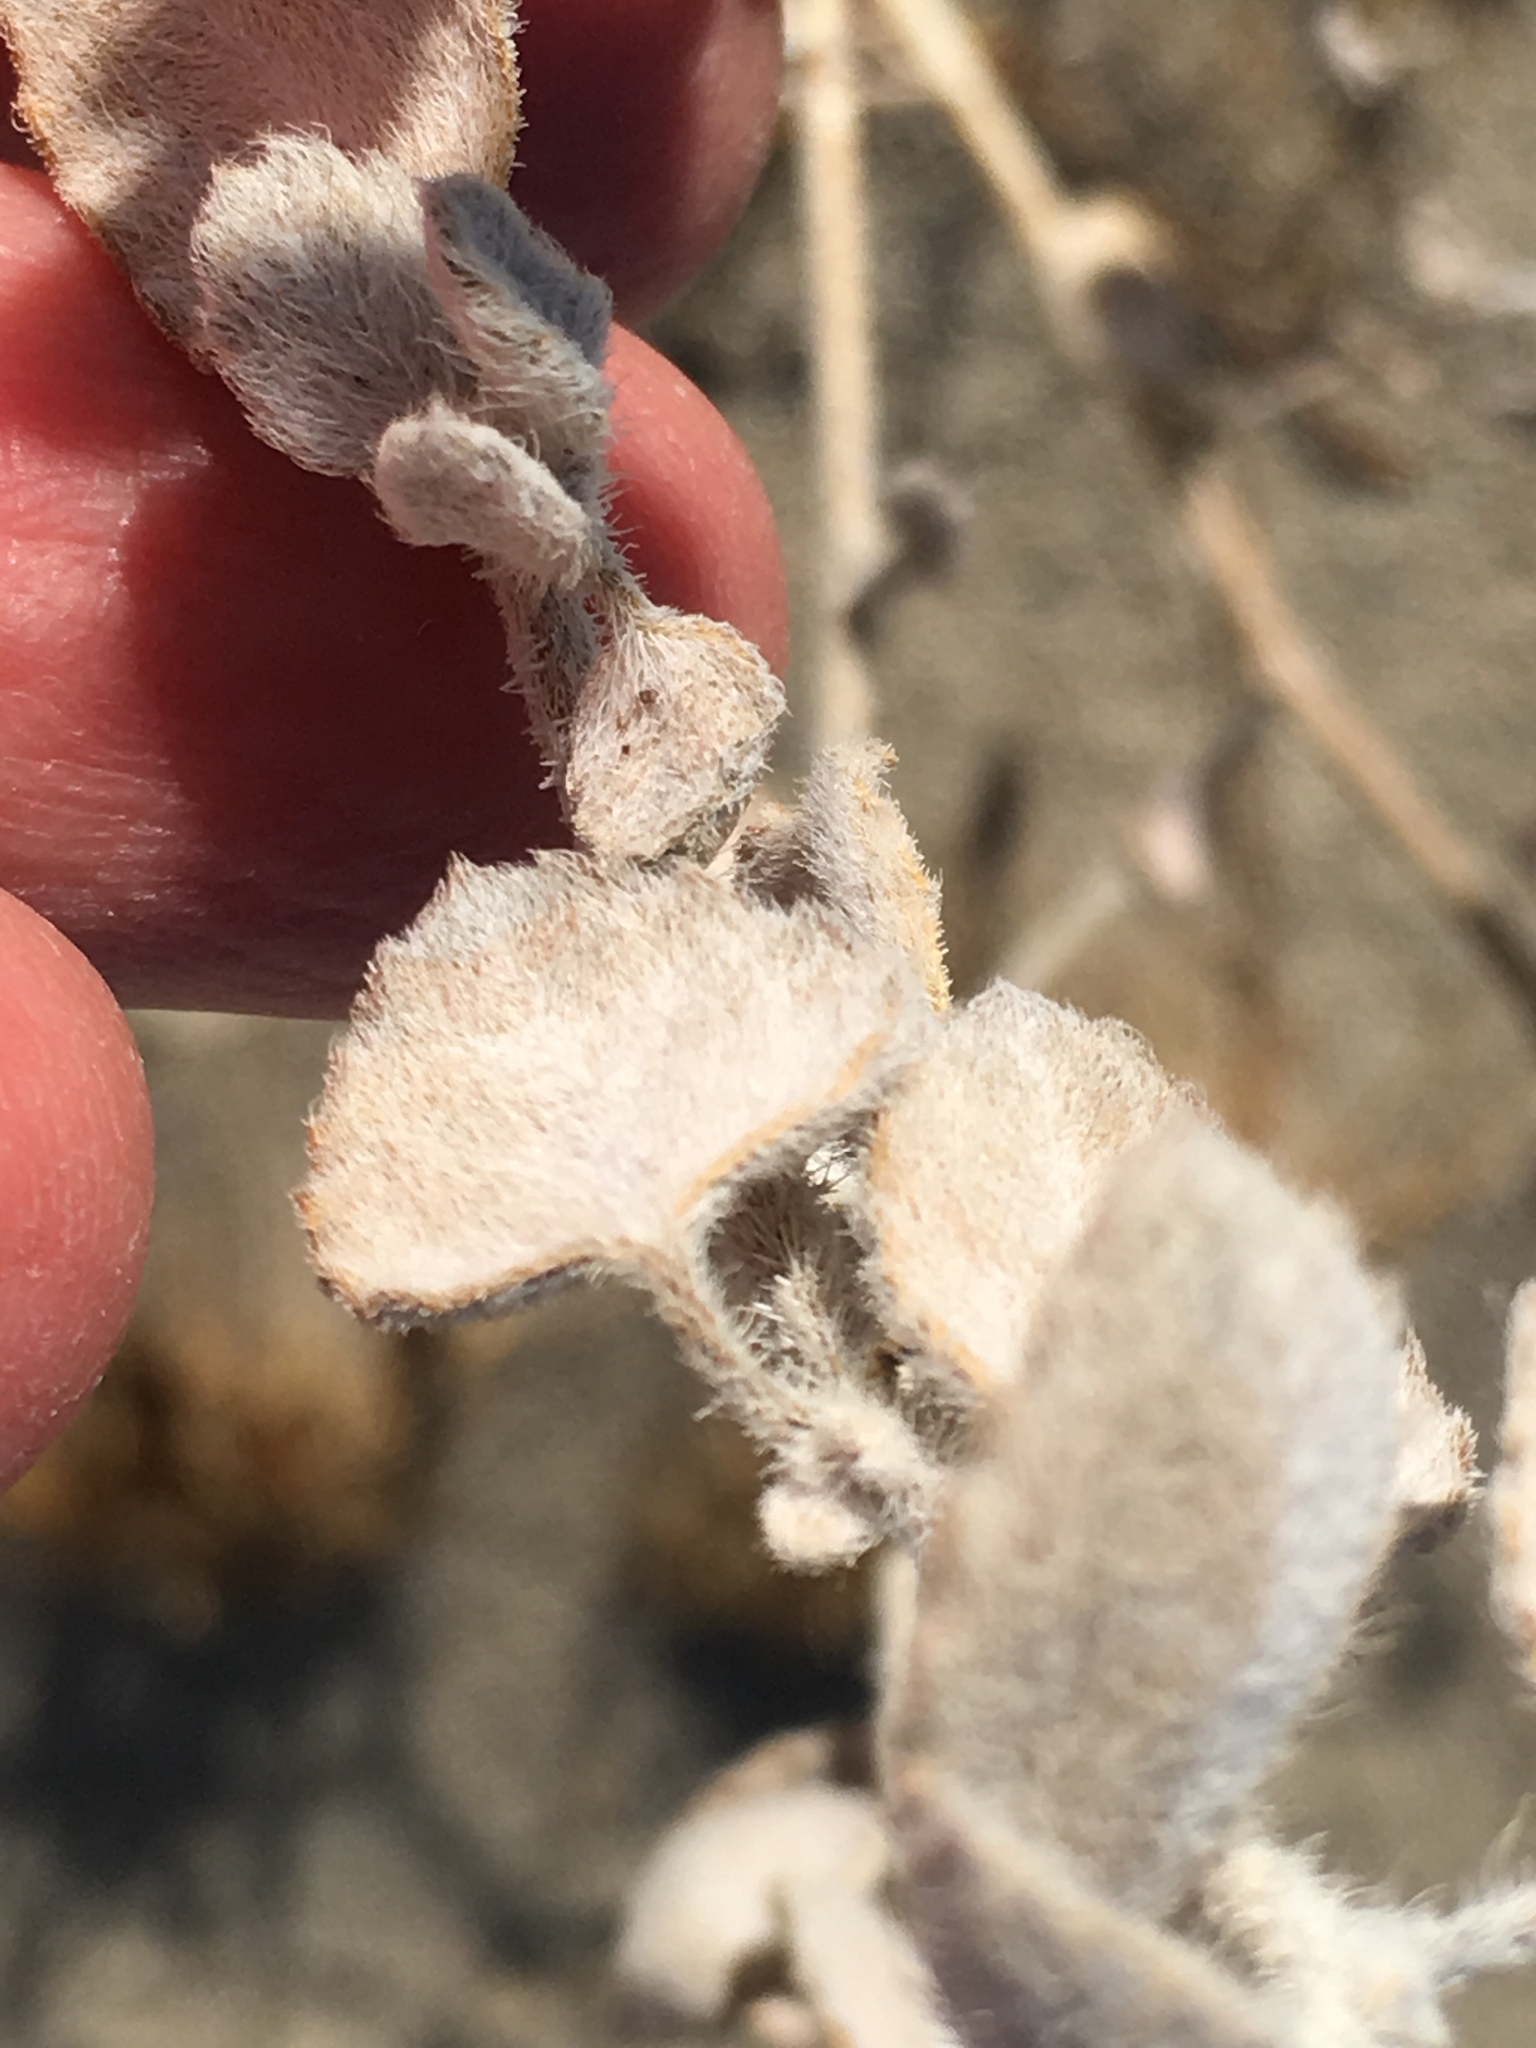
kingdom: Plantae
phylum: Tracheophyta
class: Magnoliopsida
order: Asterales
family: Asteraceae
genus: Dicoria
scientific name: Dicoria canescens
